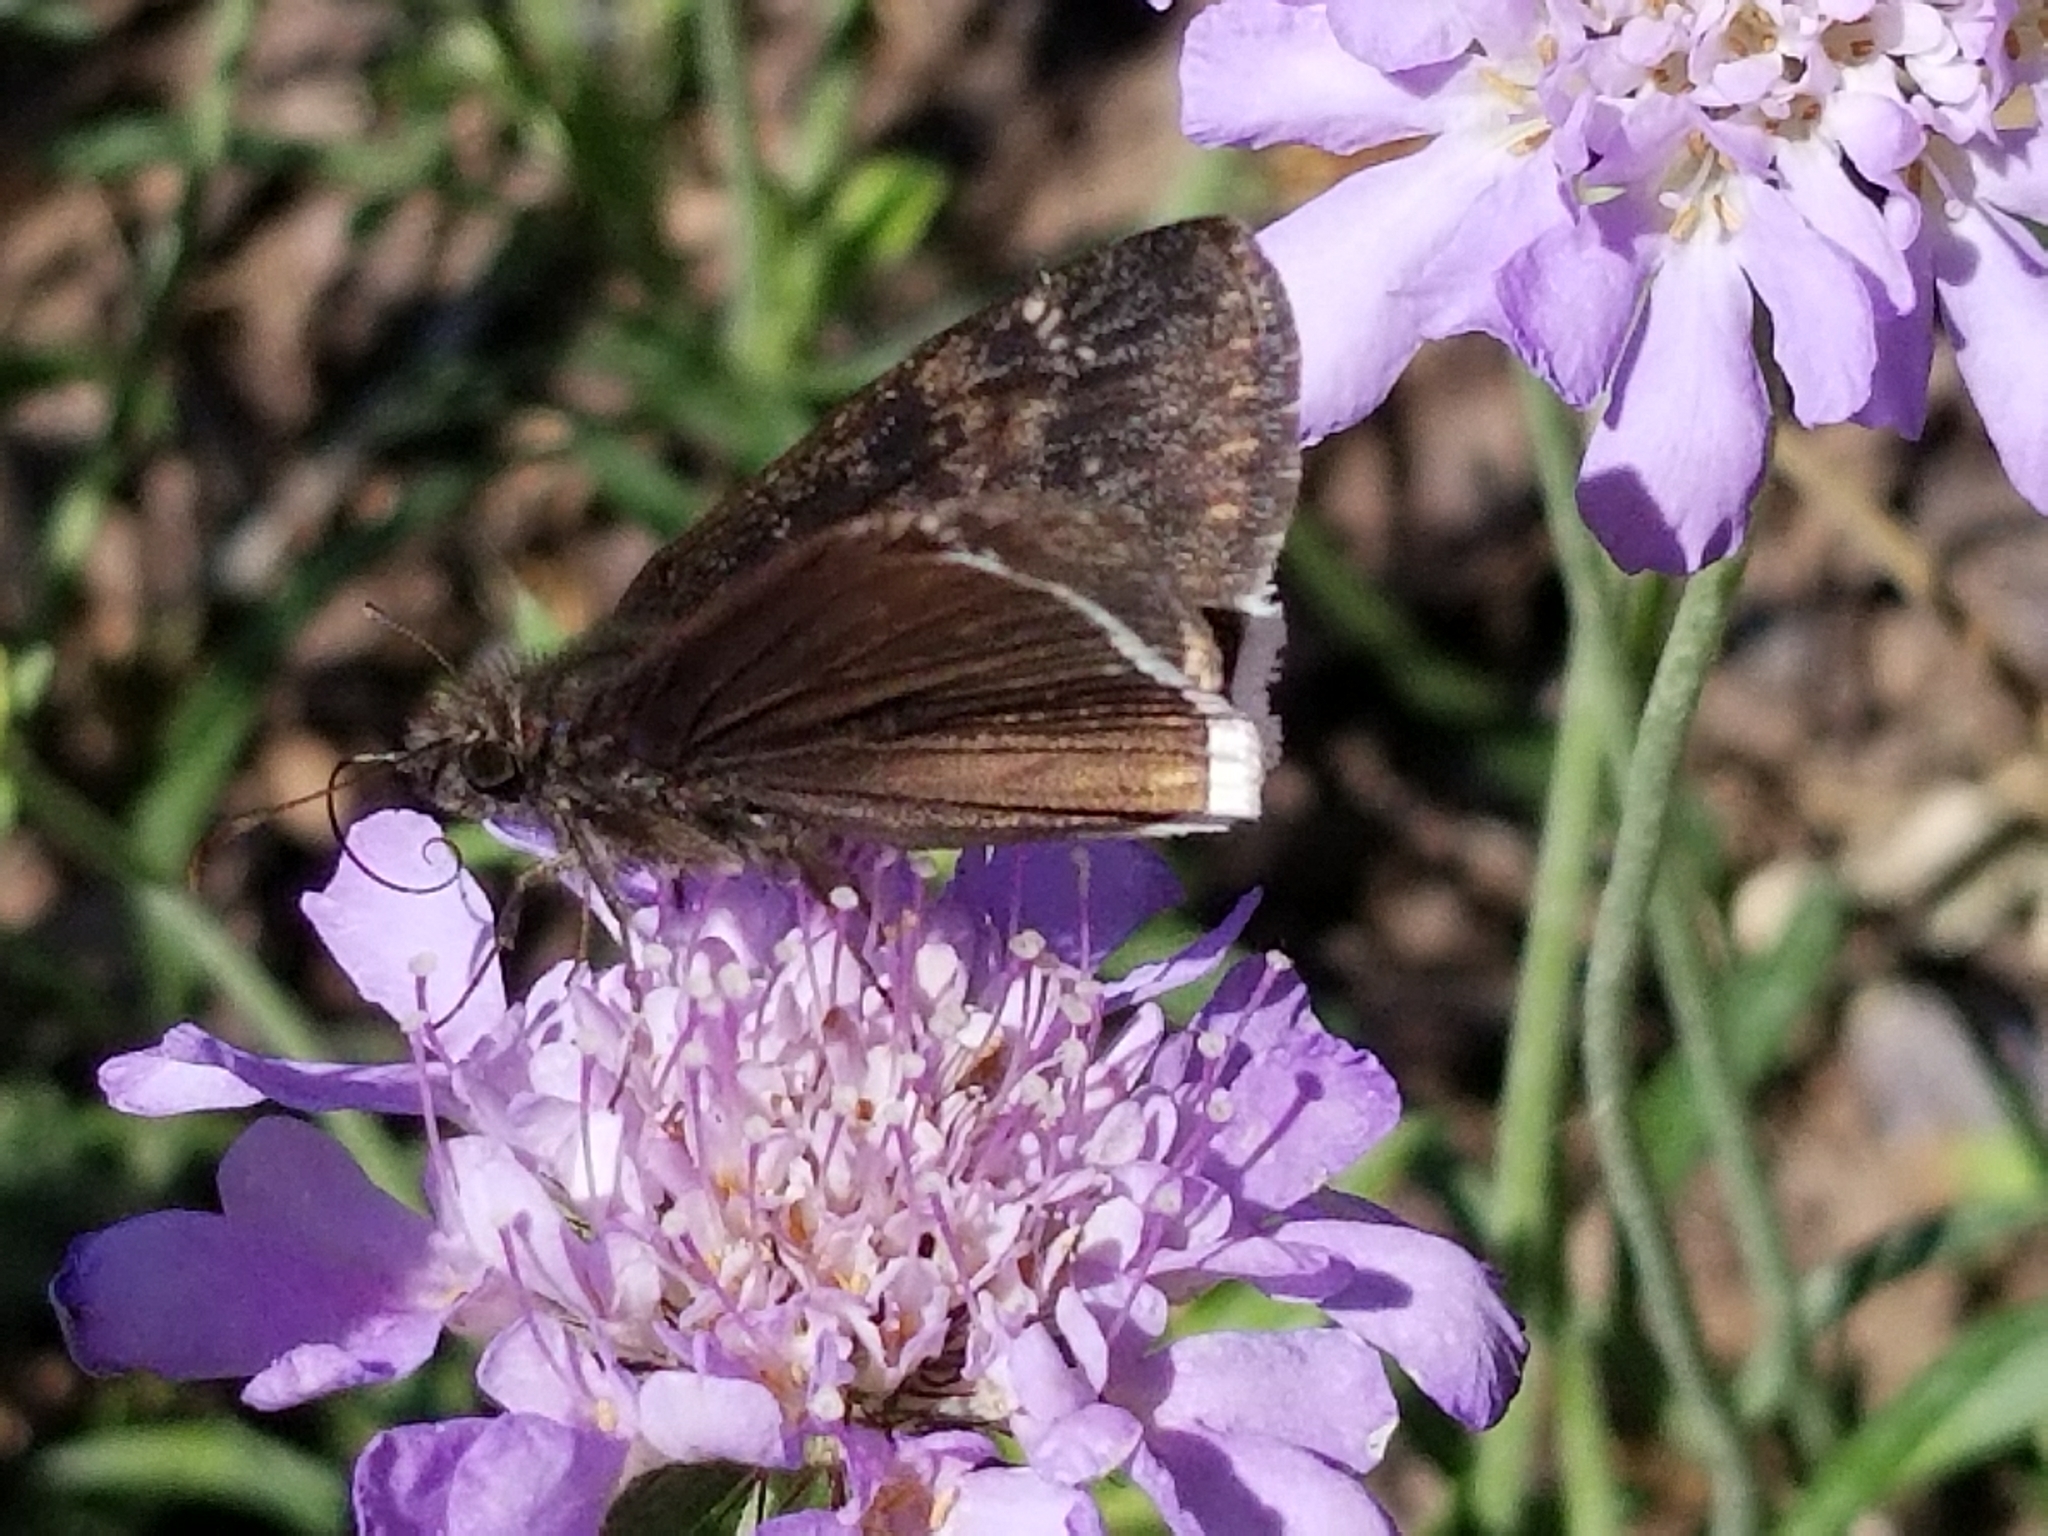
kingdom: Animalia
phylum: Arthropoda
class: Insecta
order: Lepidoptera
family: Hesperiidae
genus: Erynnis
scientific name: Erynnis funeralis
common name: Funereal duskywing
